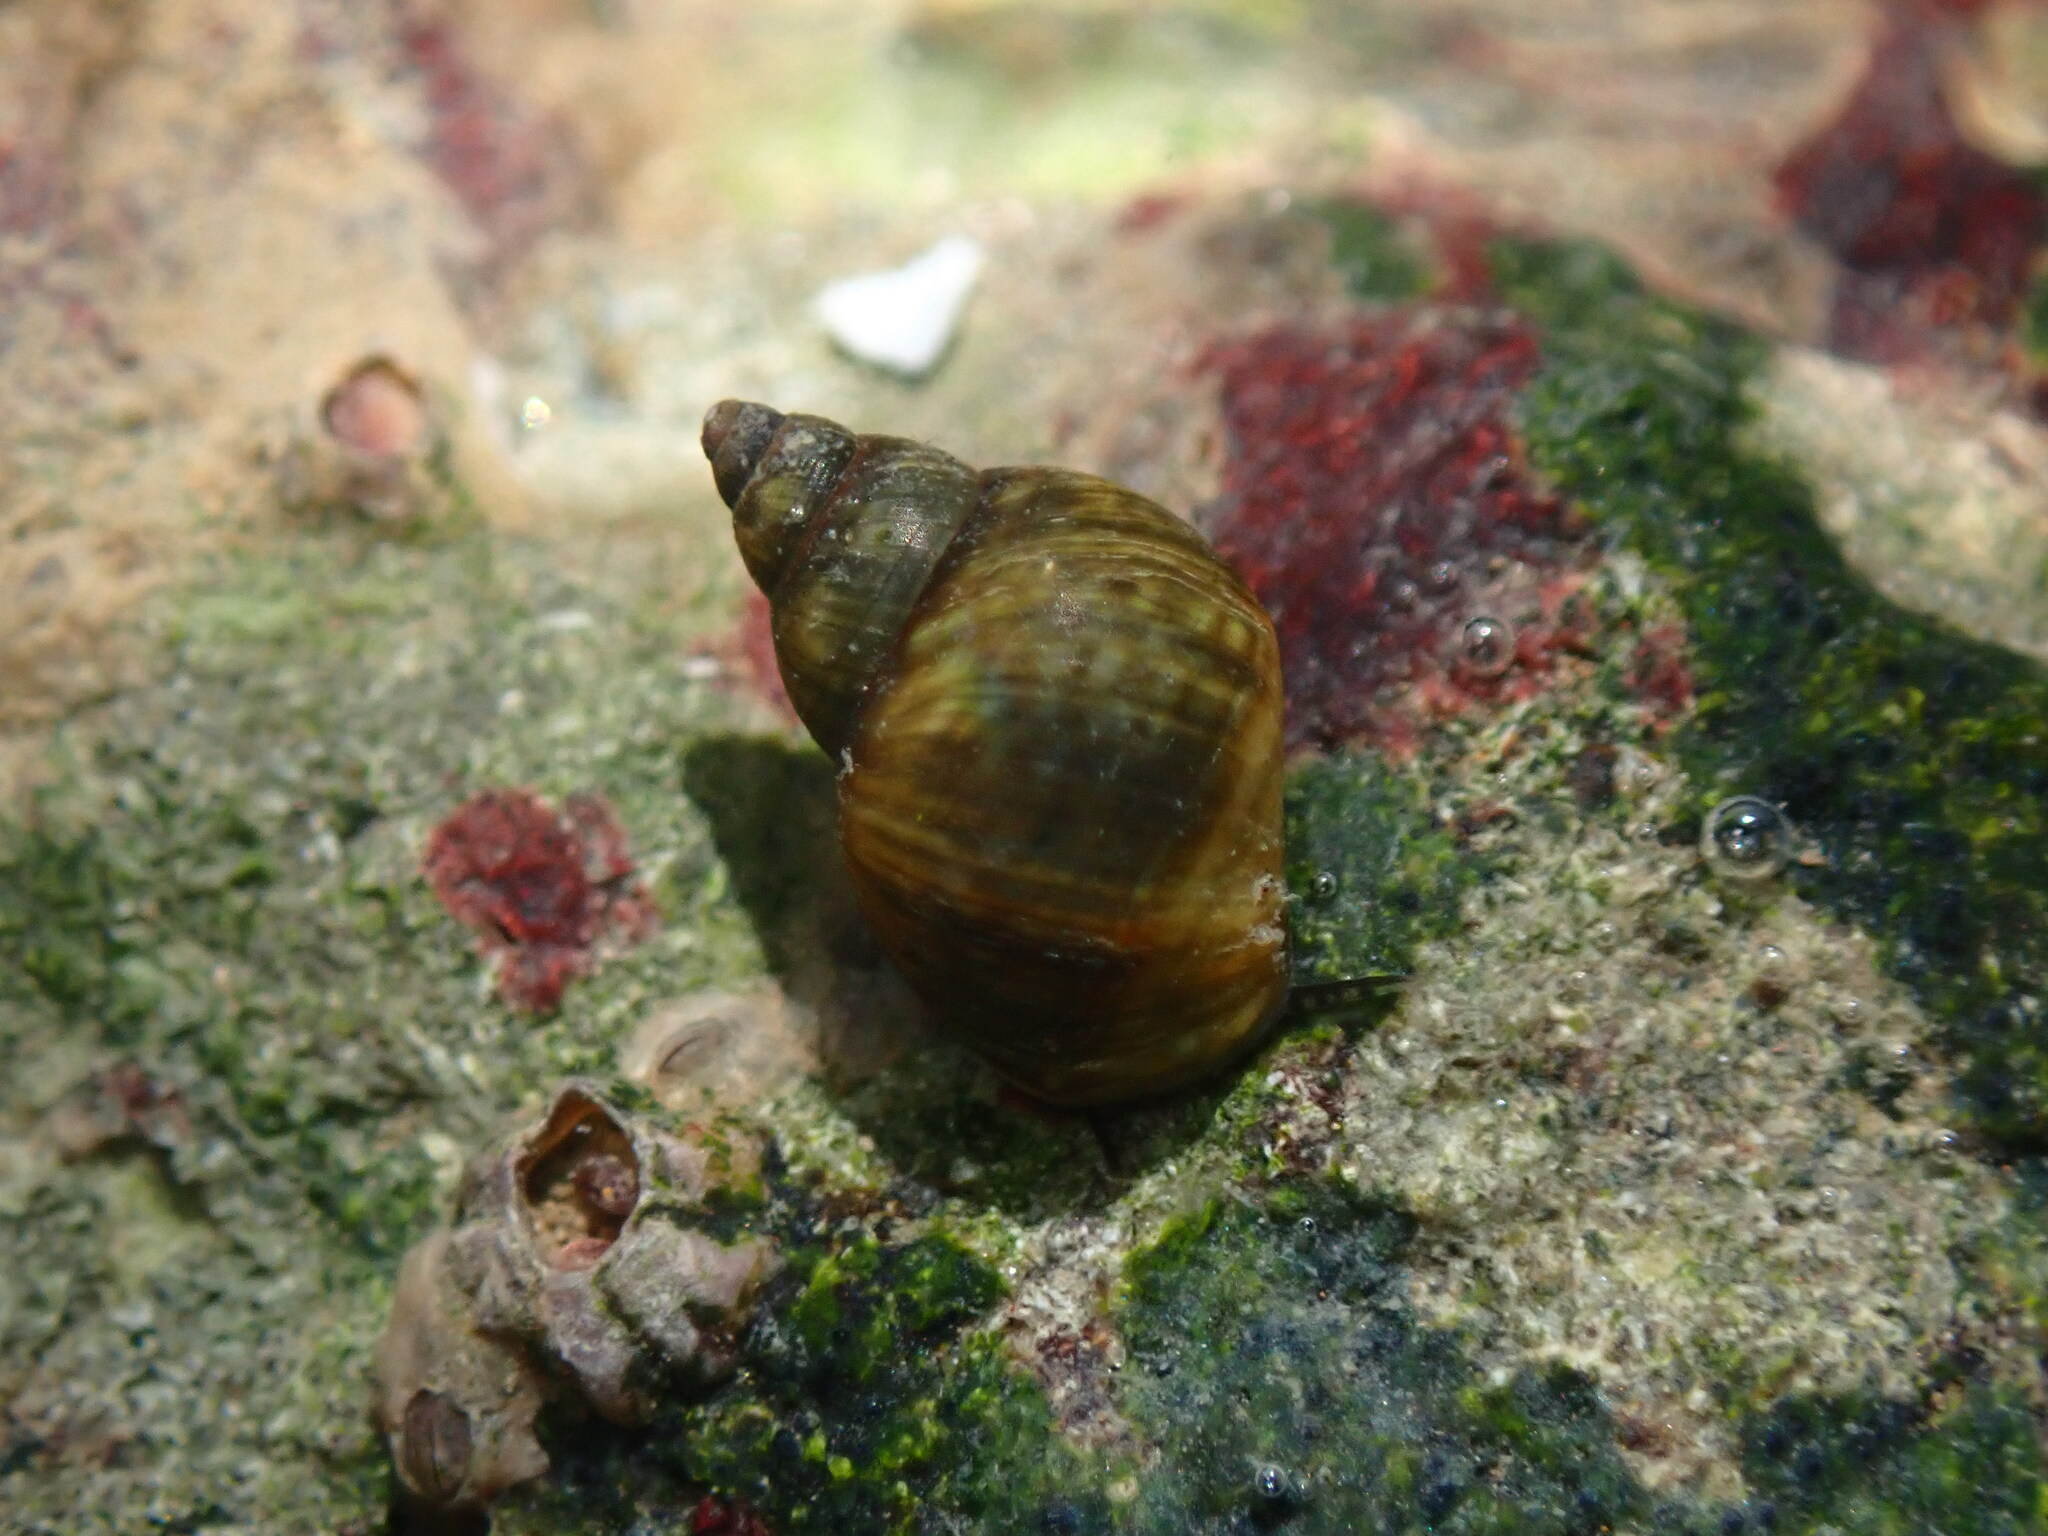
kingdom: Animalia
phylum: Mollusca
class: Gastropoda
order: Littorinimorpha
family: Littorinidae
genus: Littorina
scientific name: Littorina scutulata
